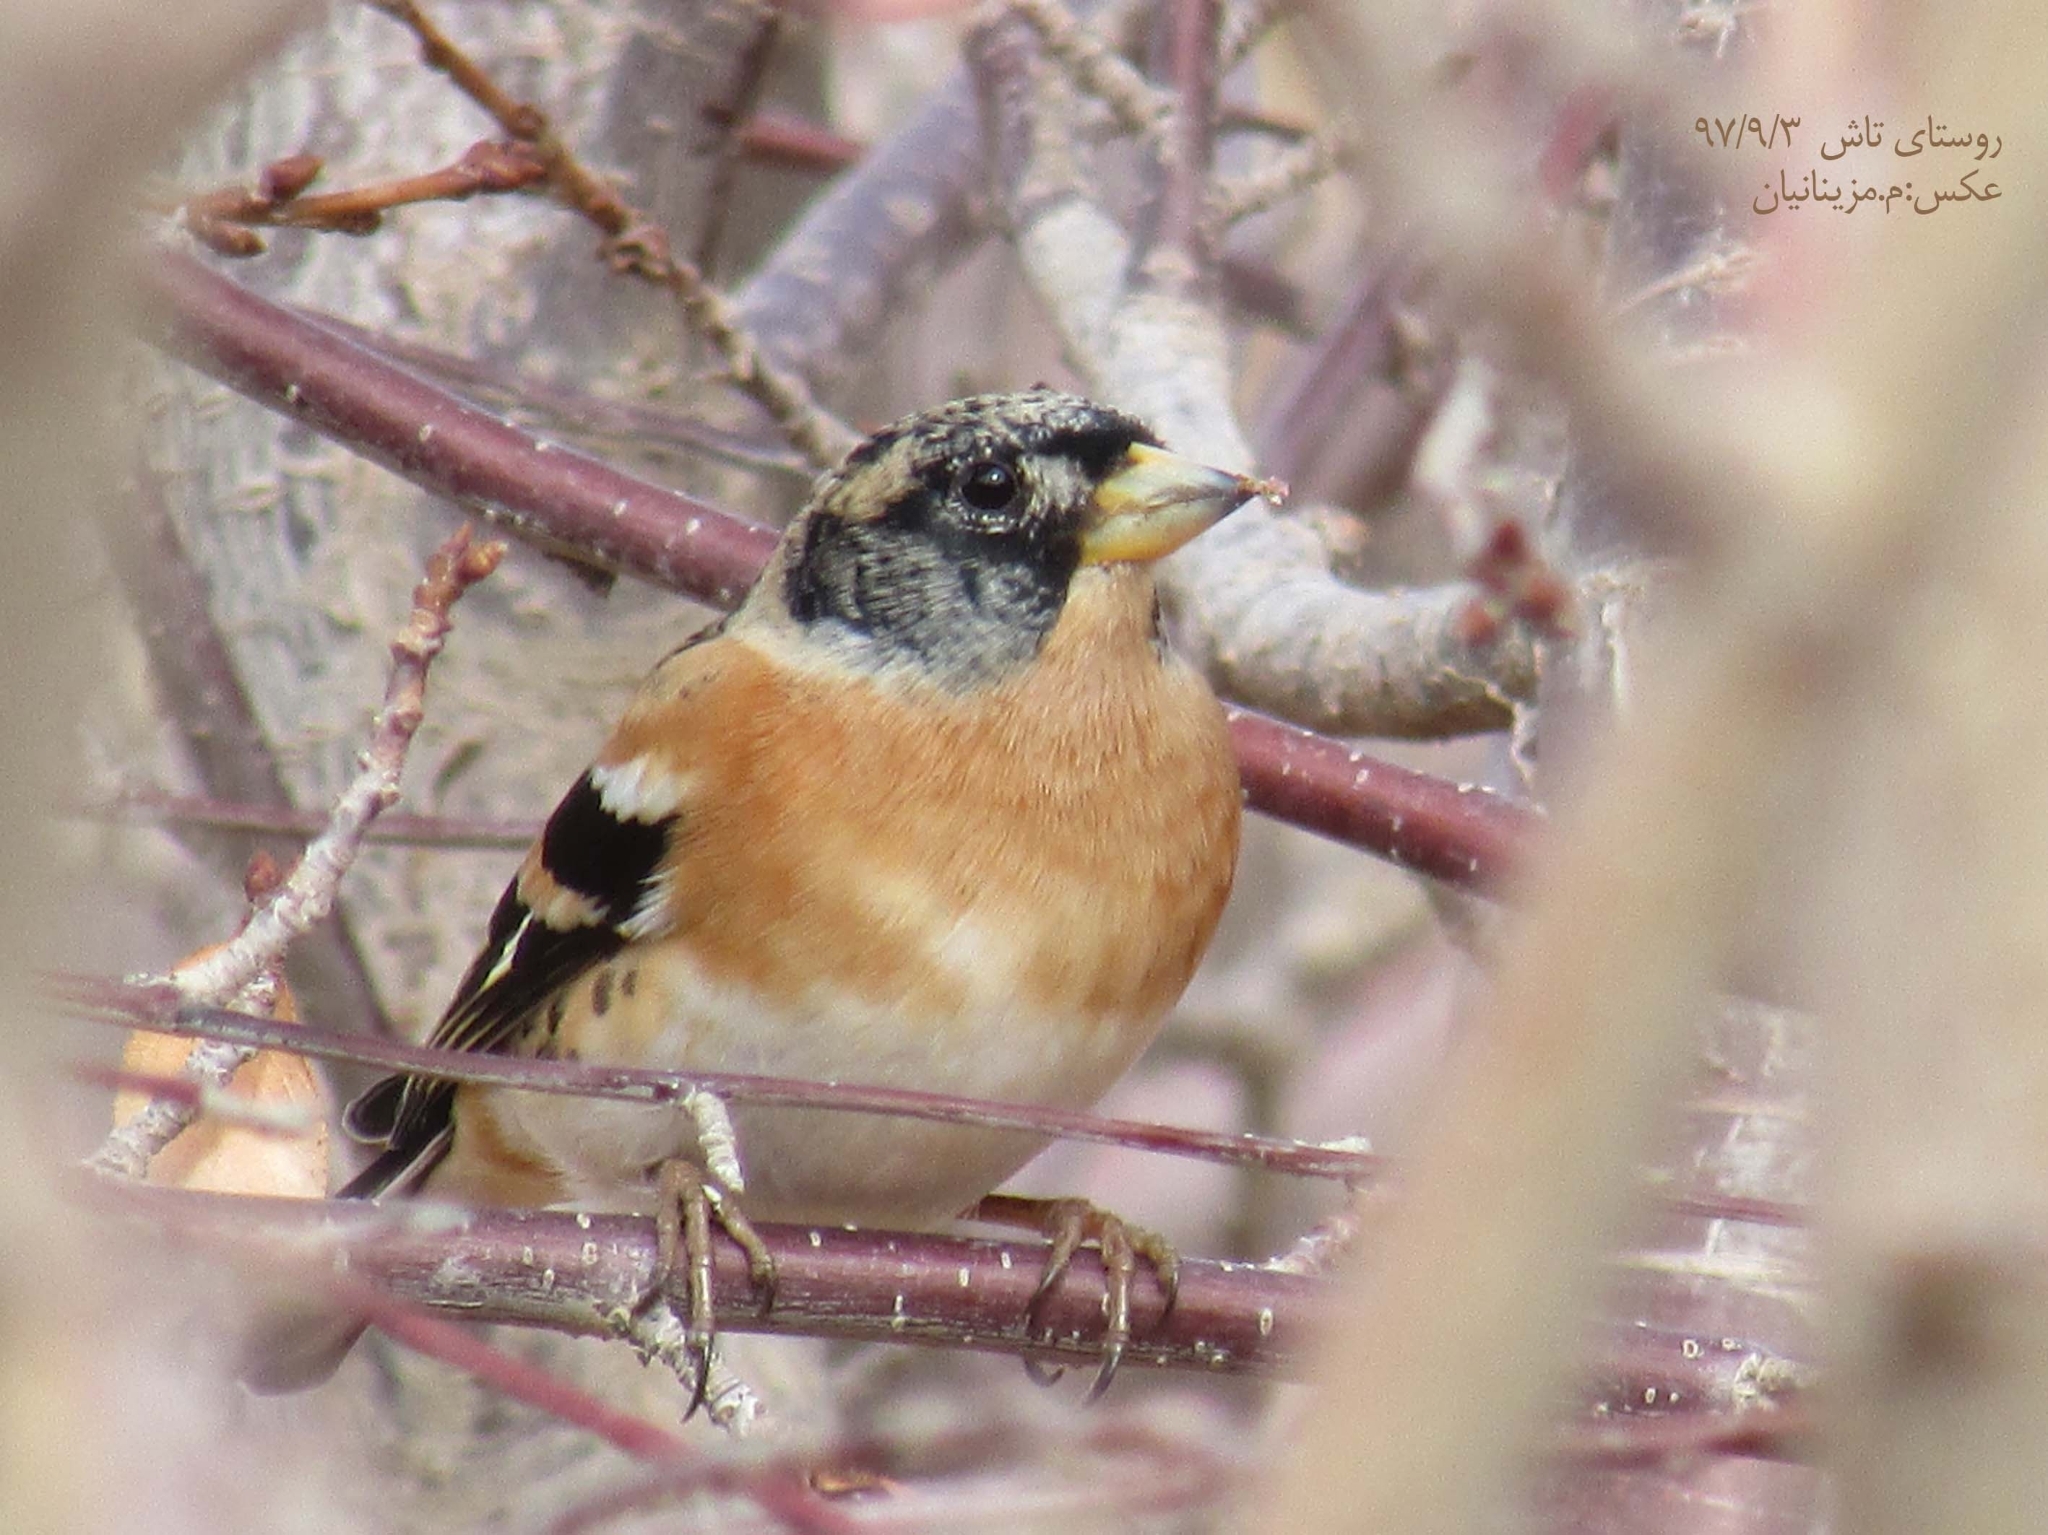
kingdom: Animalia
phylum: Chordata
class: Aves
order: Passeriformes
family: Fringillidae
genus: Fringilla
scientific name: Fringilla montifringilla
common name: Brambling
